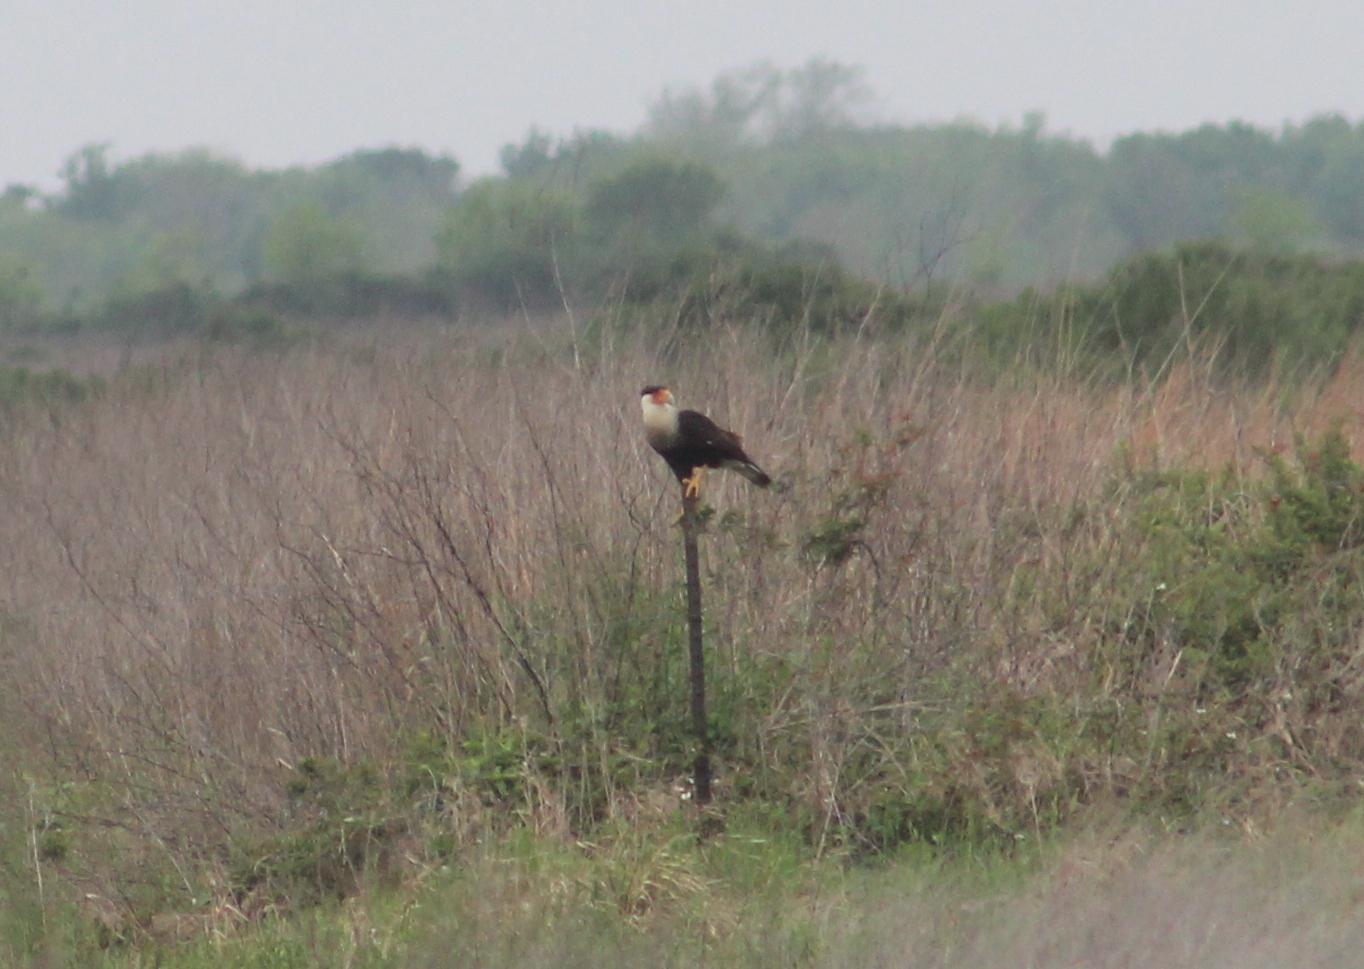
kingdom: Animalia
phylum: Chordata
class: Aves
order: Falconiformes
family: Falconidae
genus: Caracara
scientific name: Caracara plancus
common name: Southern caracara
